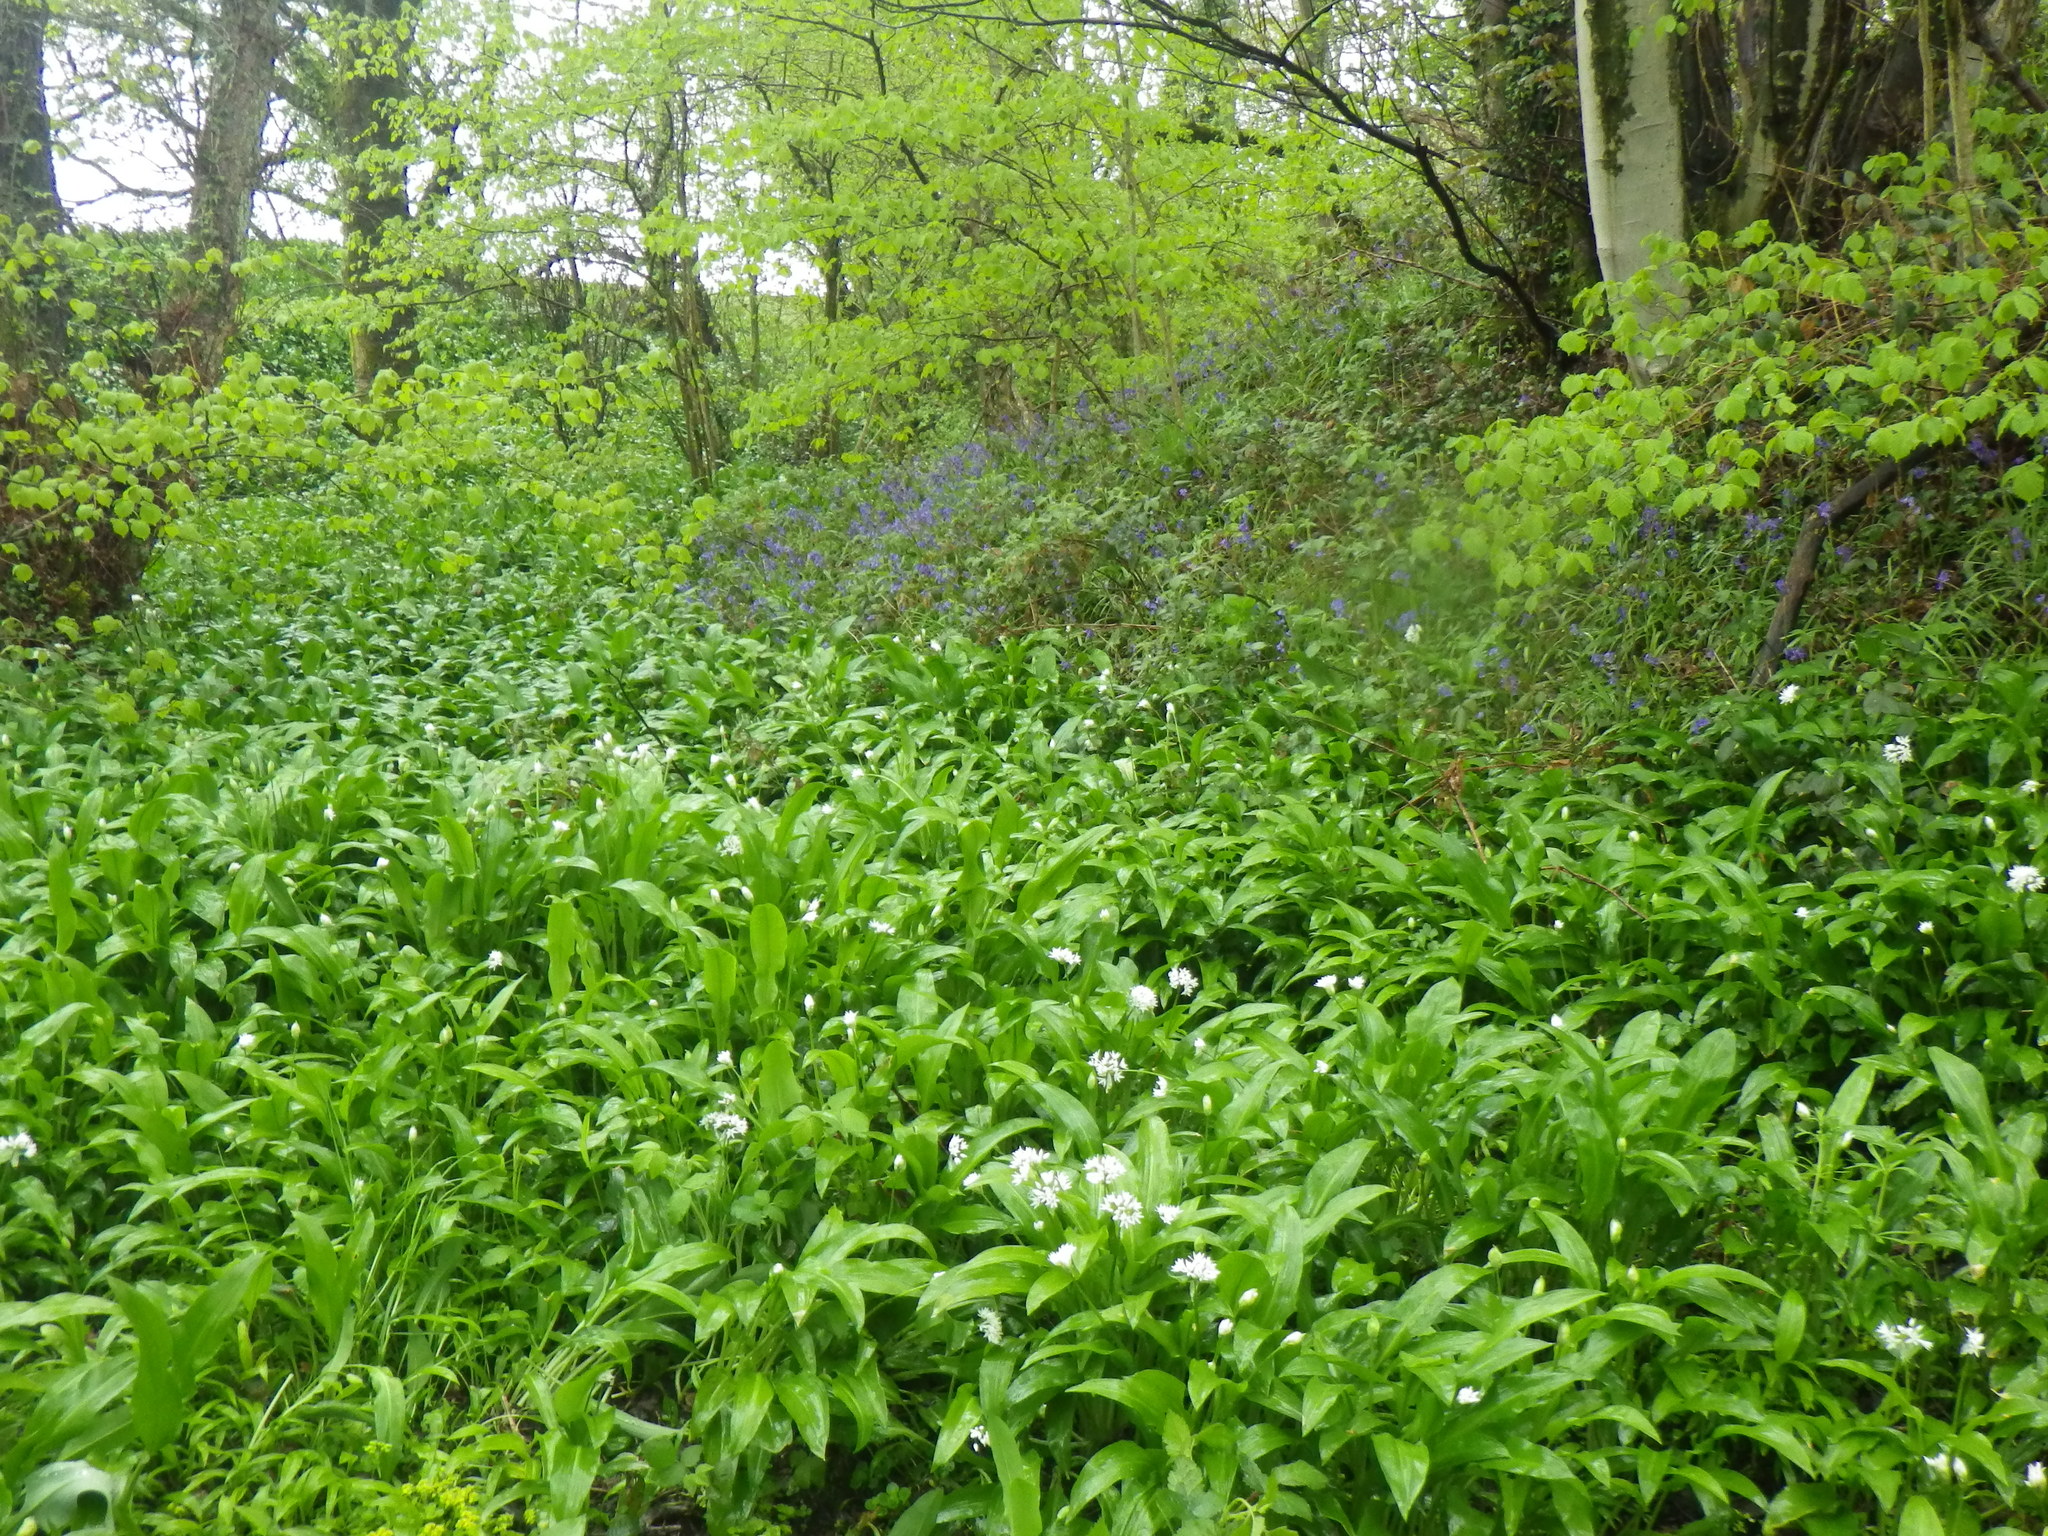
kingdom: Plantae
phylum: Tracheophyta
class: Liliopsida
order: Asparagales
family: Amaryllidaceae
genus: Allium
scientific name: Allium ursinum
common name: Ramsons
